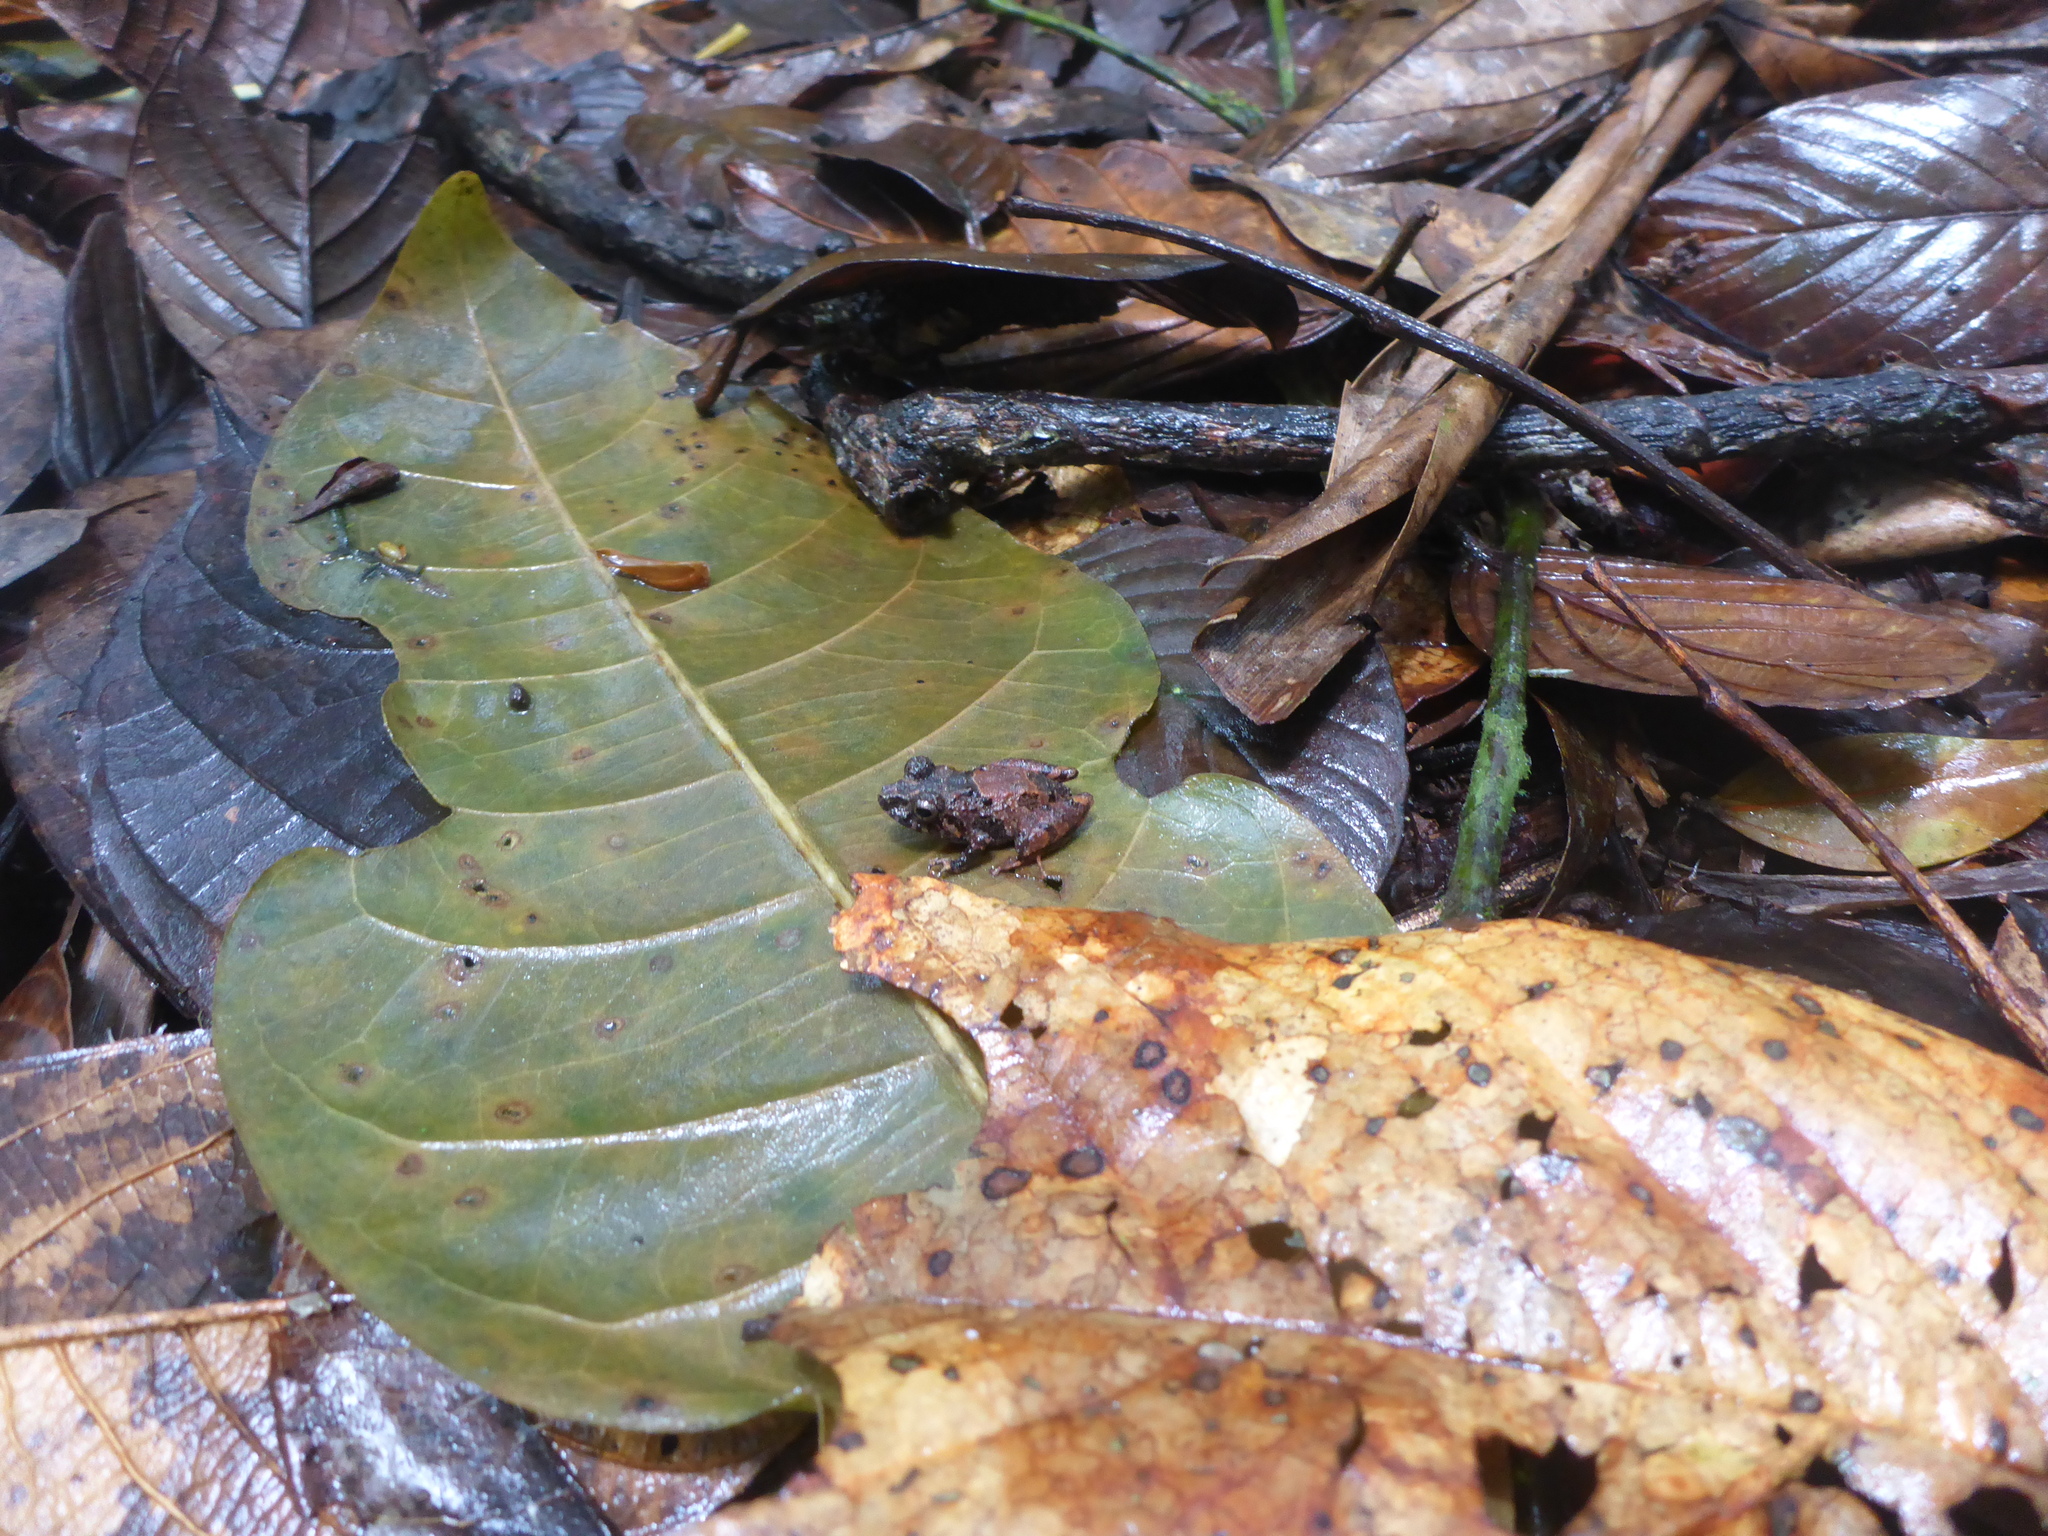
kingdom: Animalia
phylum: Chordata
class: Amphibia
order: Anura
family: Craugastoridae
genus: Pristimantis
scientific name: Pristimantis kichwarum
